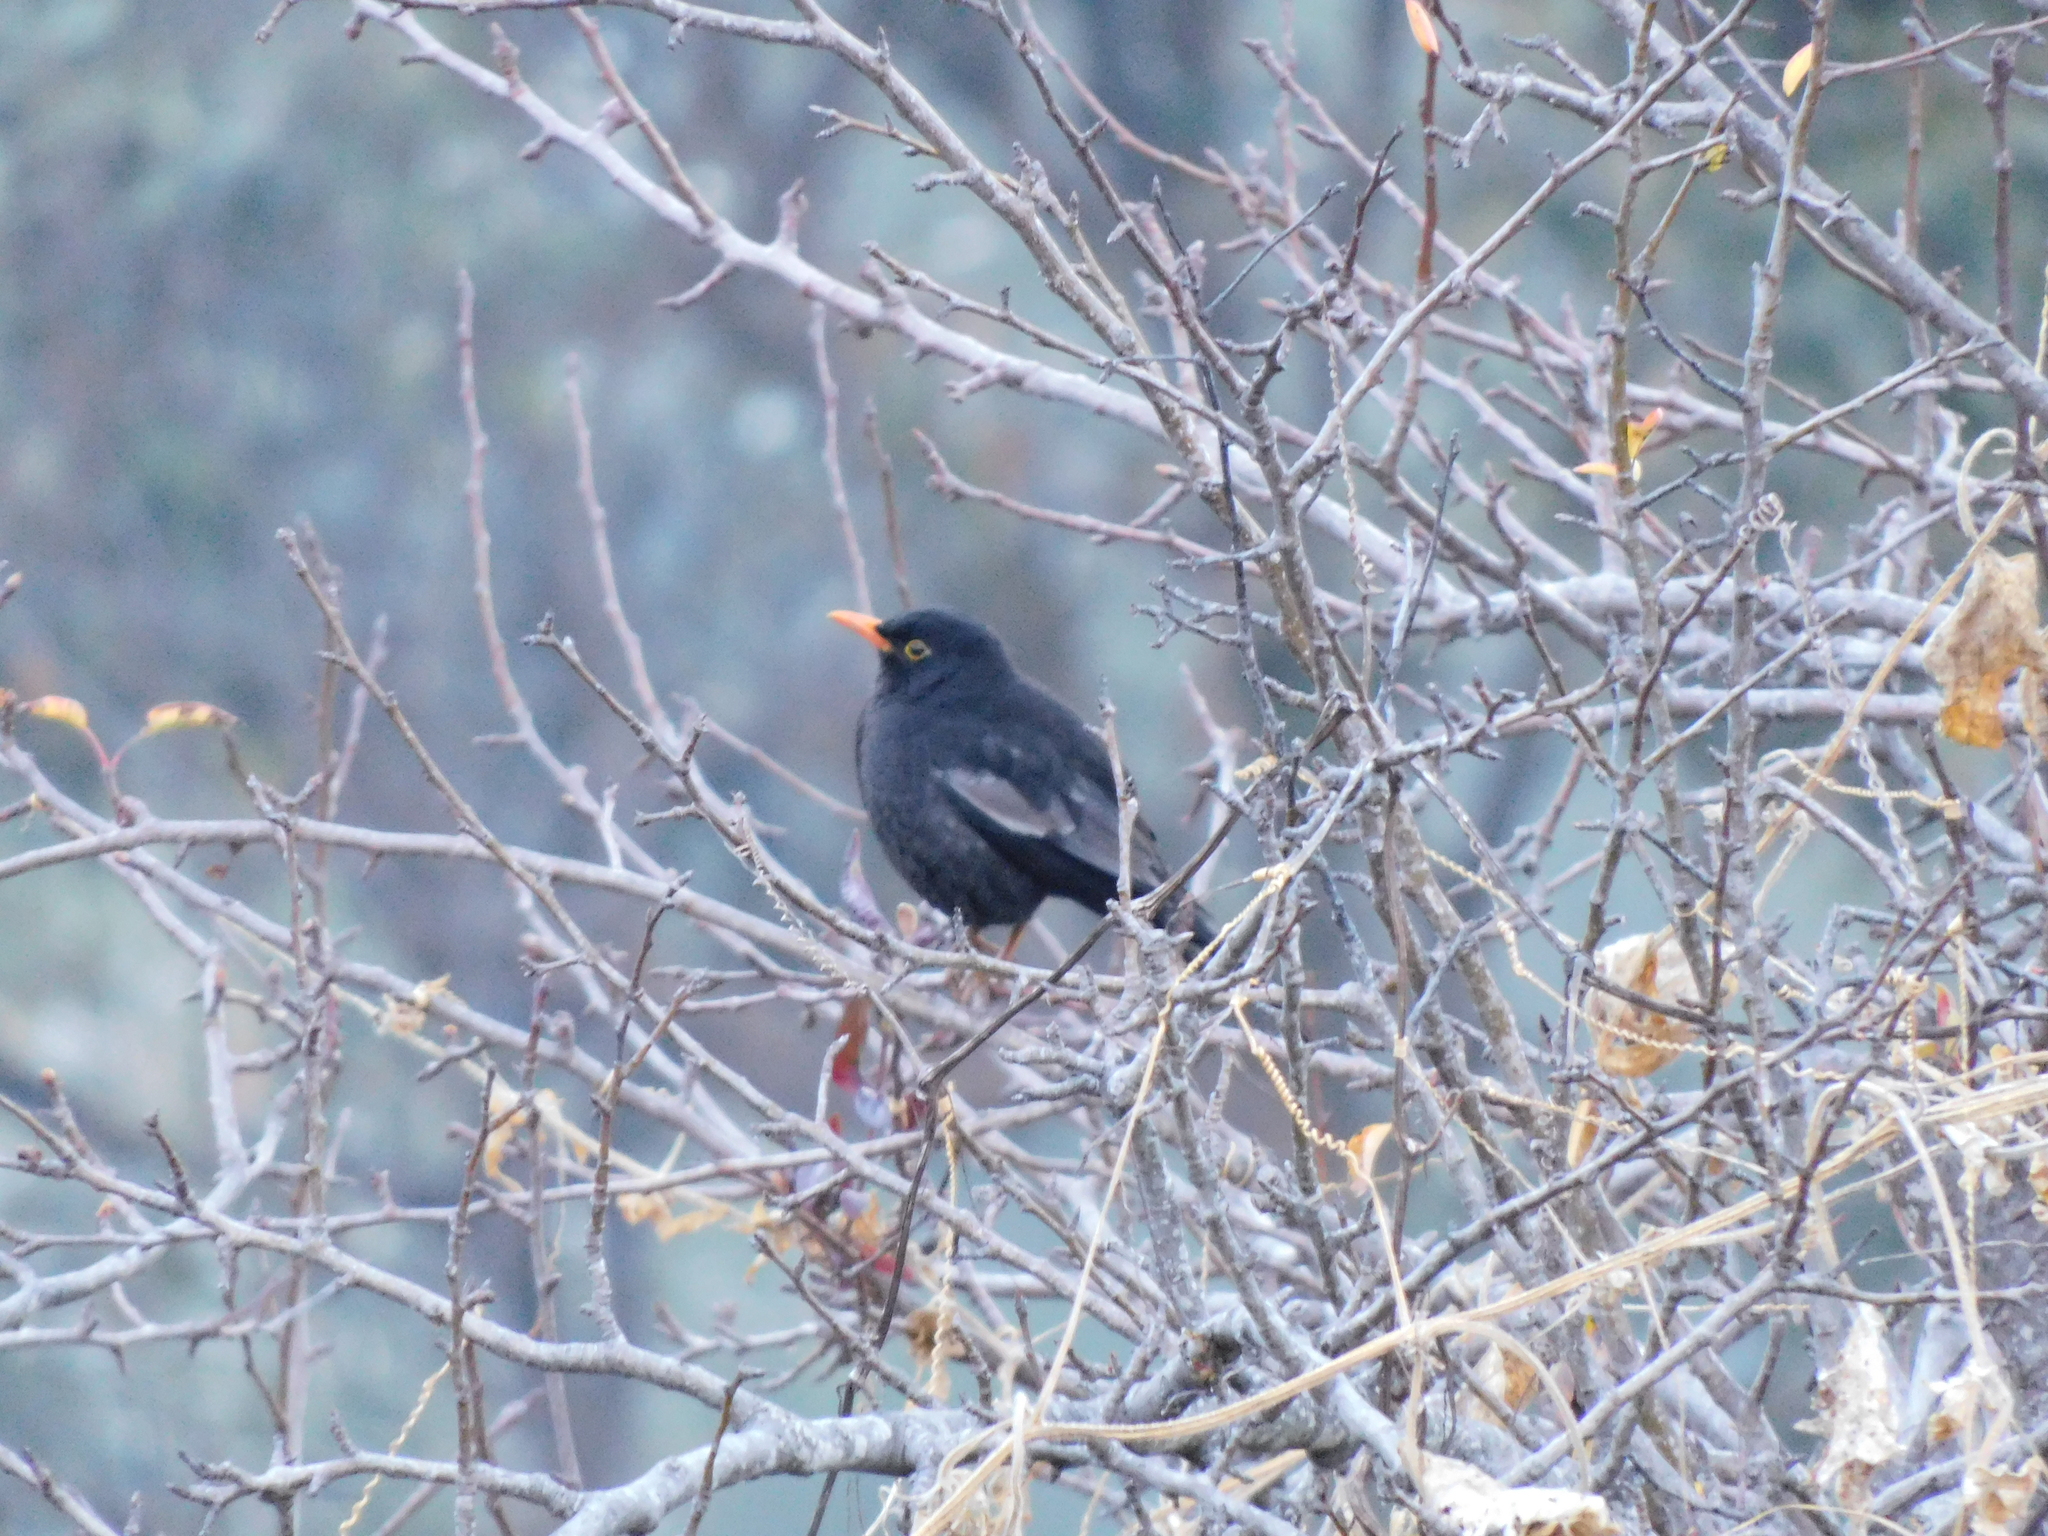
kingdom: Animalia
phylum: Chordata
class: Aves
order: Passeriformes
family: Turdidae
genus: Turdus
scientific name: Turdus boulboul
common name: Grey-winged blackbird
